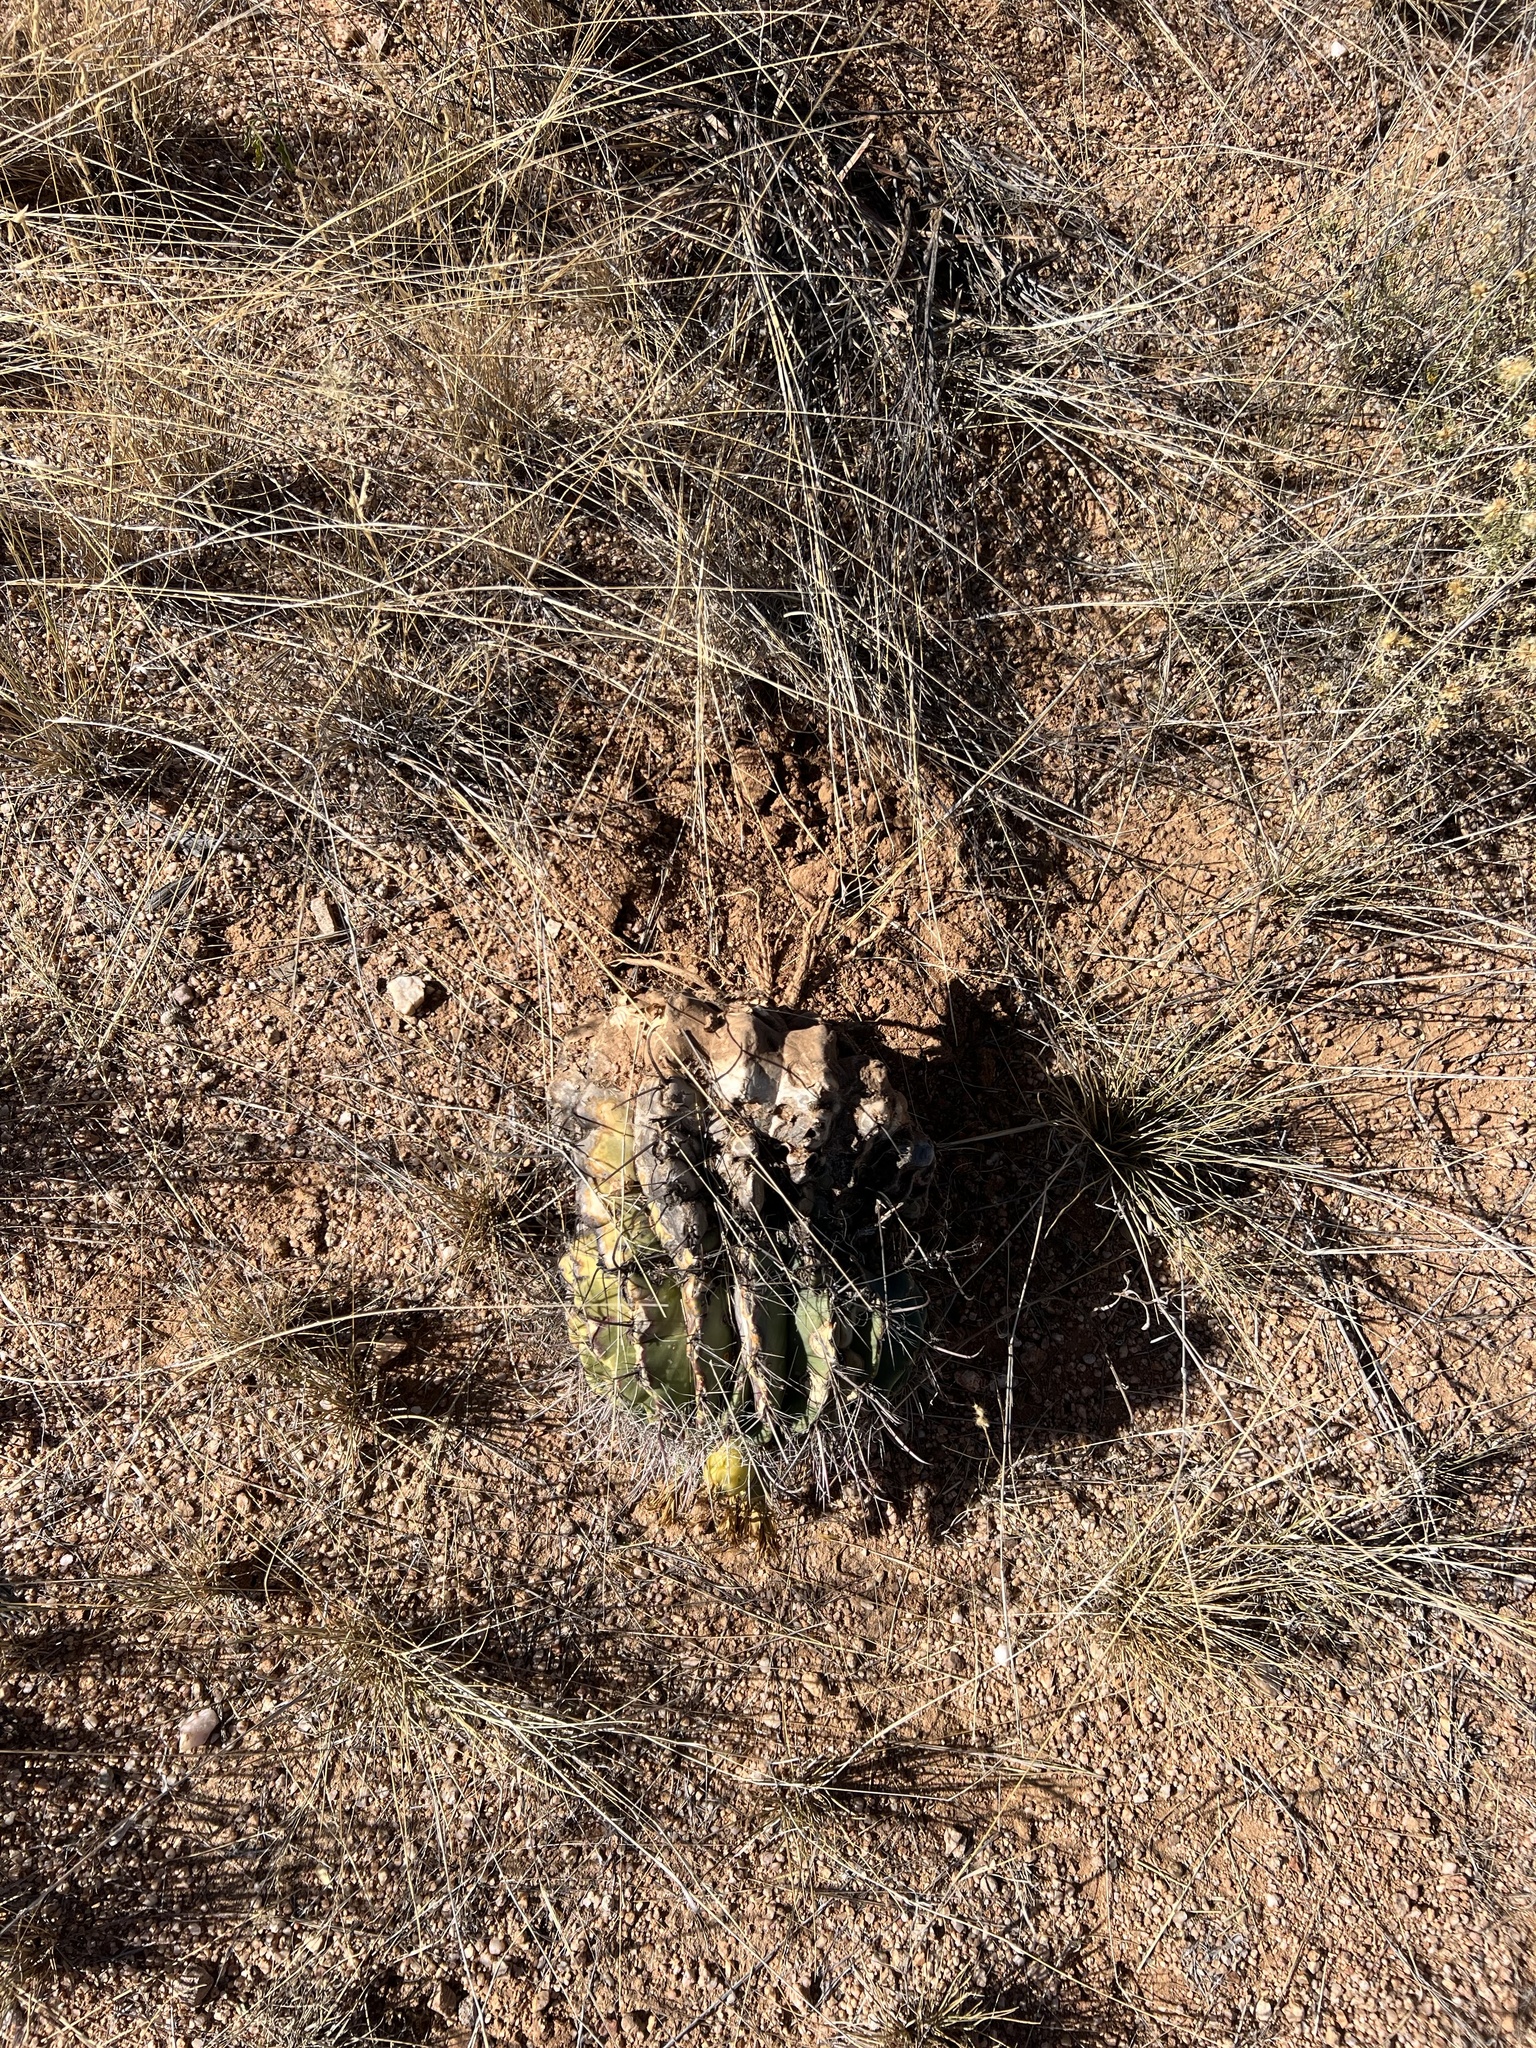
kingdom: Plantae
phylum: Tracheophyta
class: Magnoliopsida
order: Caryophyllales
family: Cactaceae
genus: Ferocactus
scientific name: Ferocactus wislizeni
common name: Candy barrel cactus
